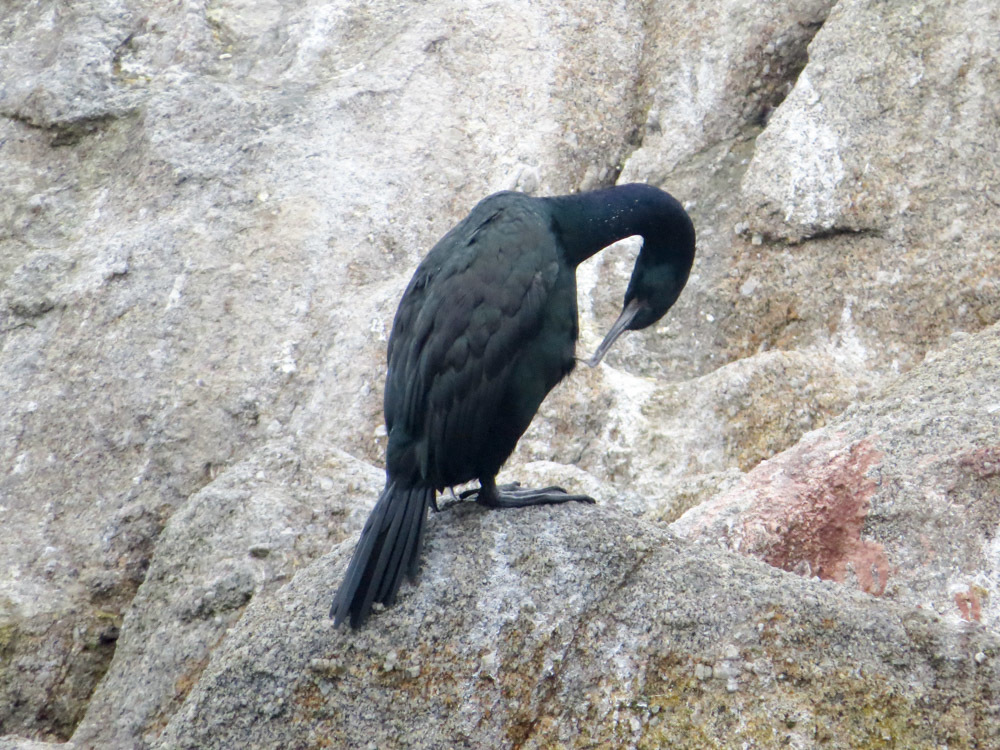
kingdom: Animalia
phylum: Chordata
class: Aves
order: Suliformes
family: Phalacrocoracidae
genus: Phalacrocorax
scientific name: Phalacrocorax pelagicus
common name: Pelagic cormorant
